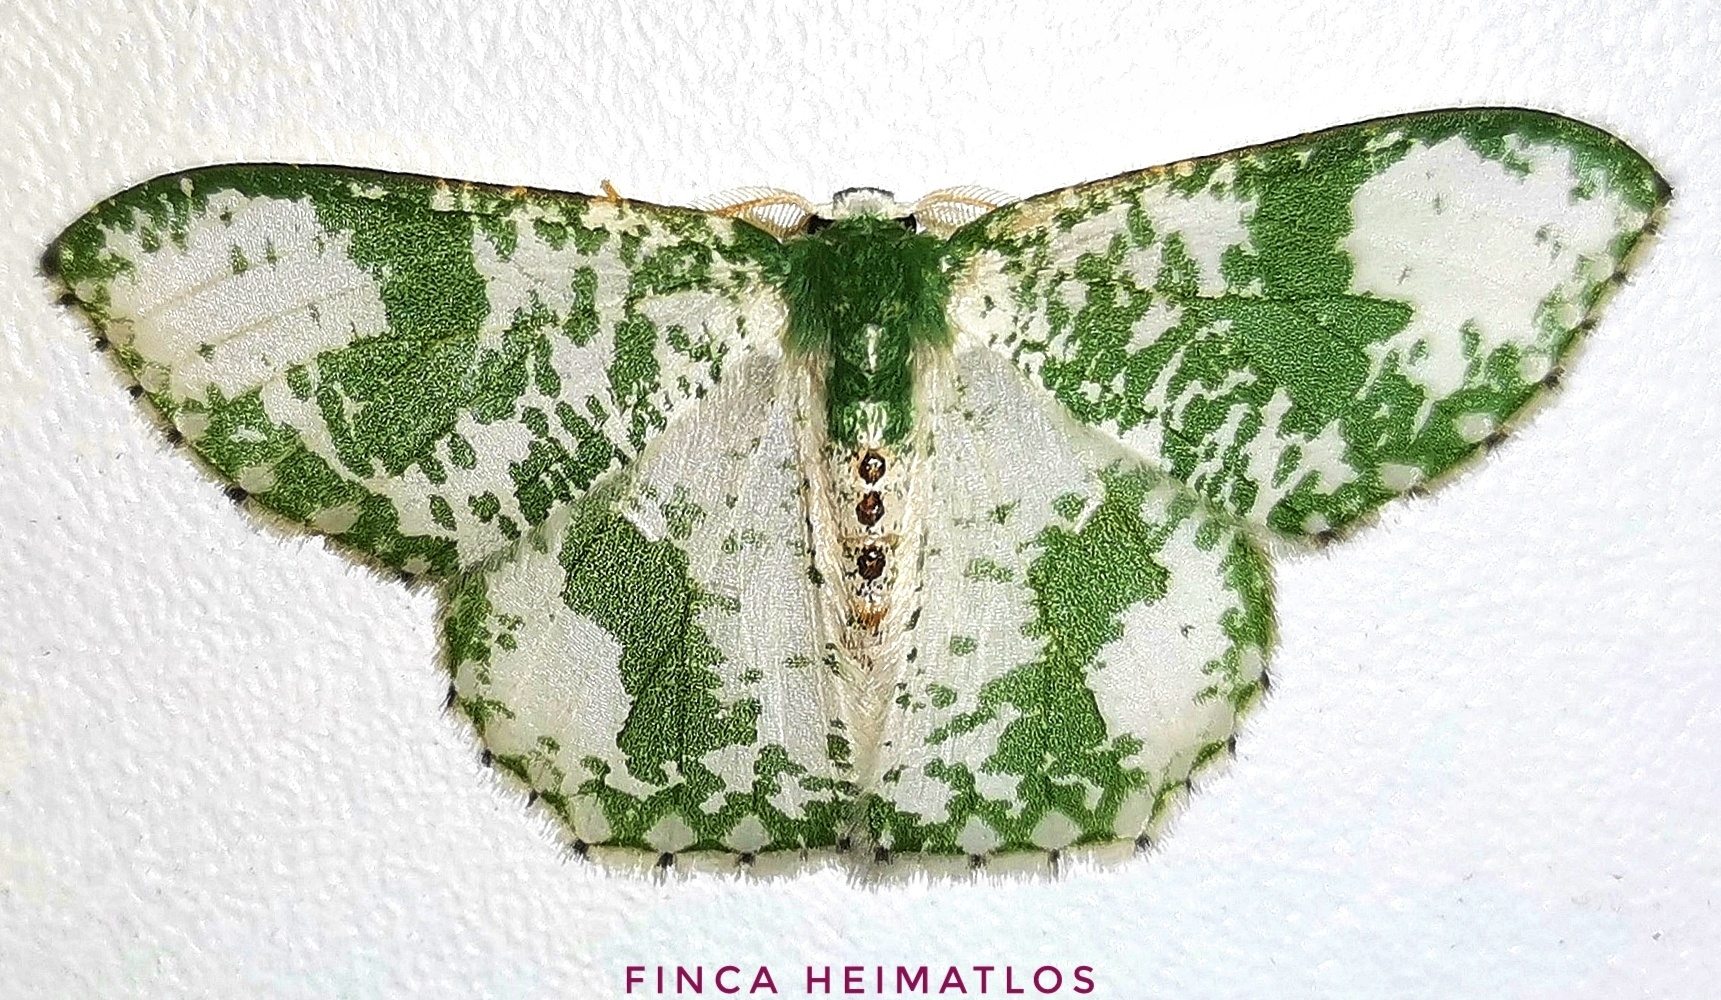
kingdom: Animalia
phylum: Arthropoda
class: Insecta
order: Lepidoptera
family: Geometridae
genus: Oospila
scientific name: Oospila sporadata
